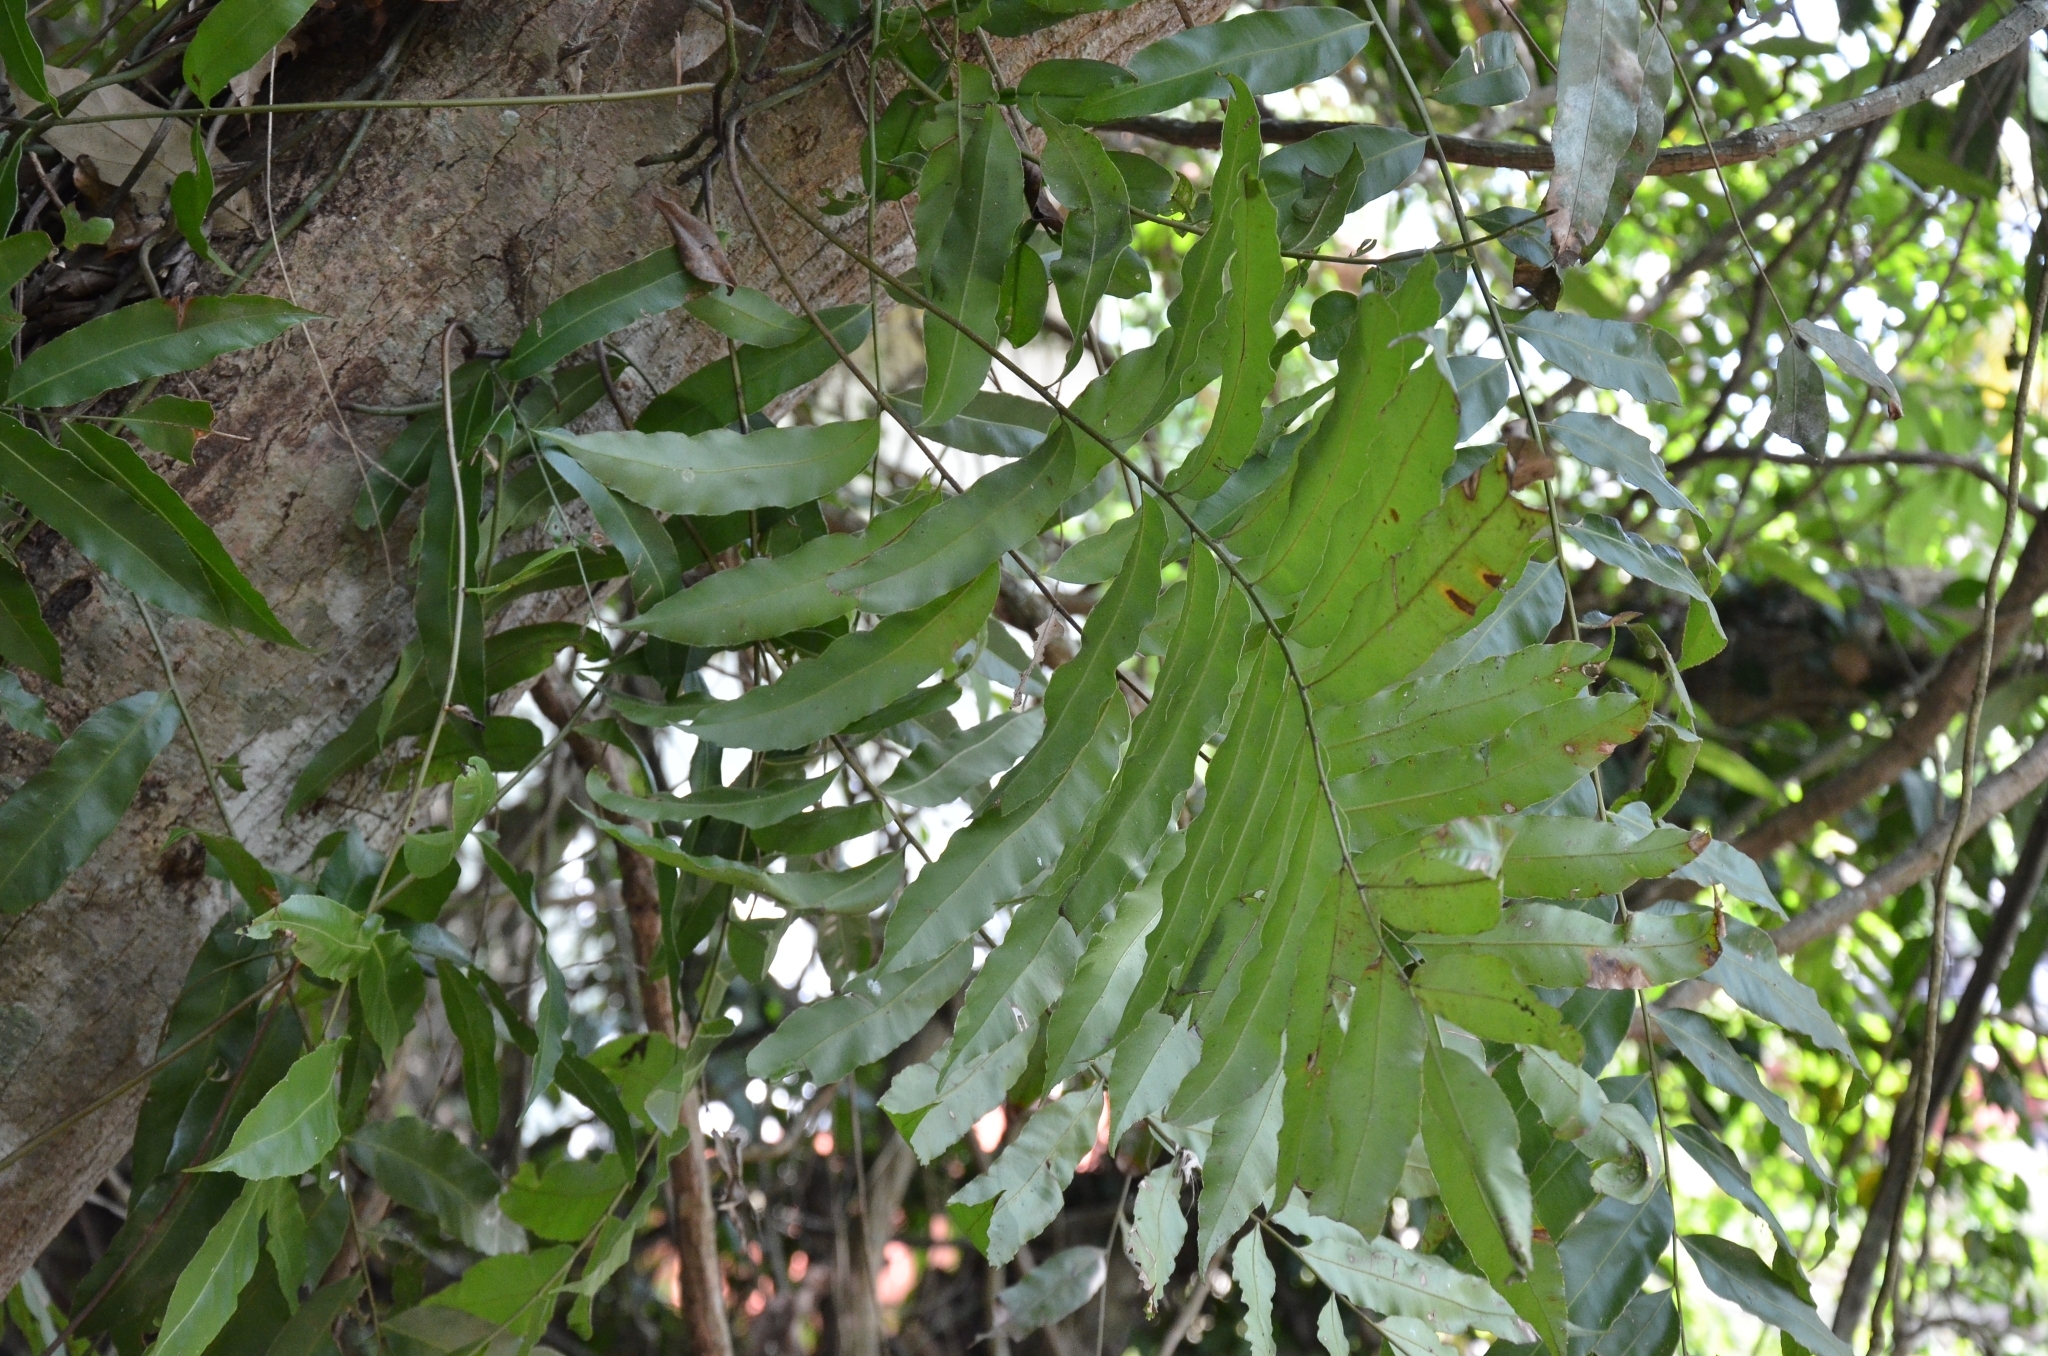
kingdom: Plantae
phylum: Tracheophyta
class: Polypodiopsida
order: Polypodiales
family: Blechnaceae
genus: Stenochlaena
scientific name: Stenochlaena palustris
